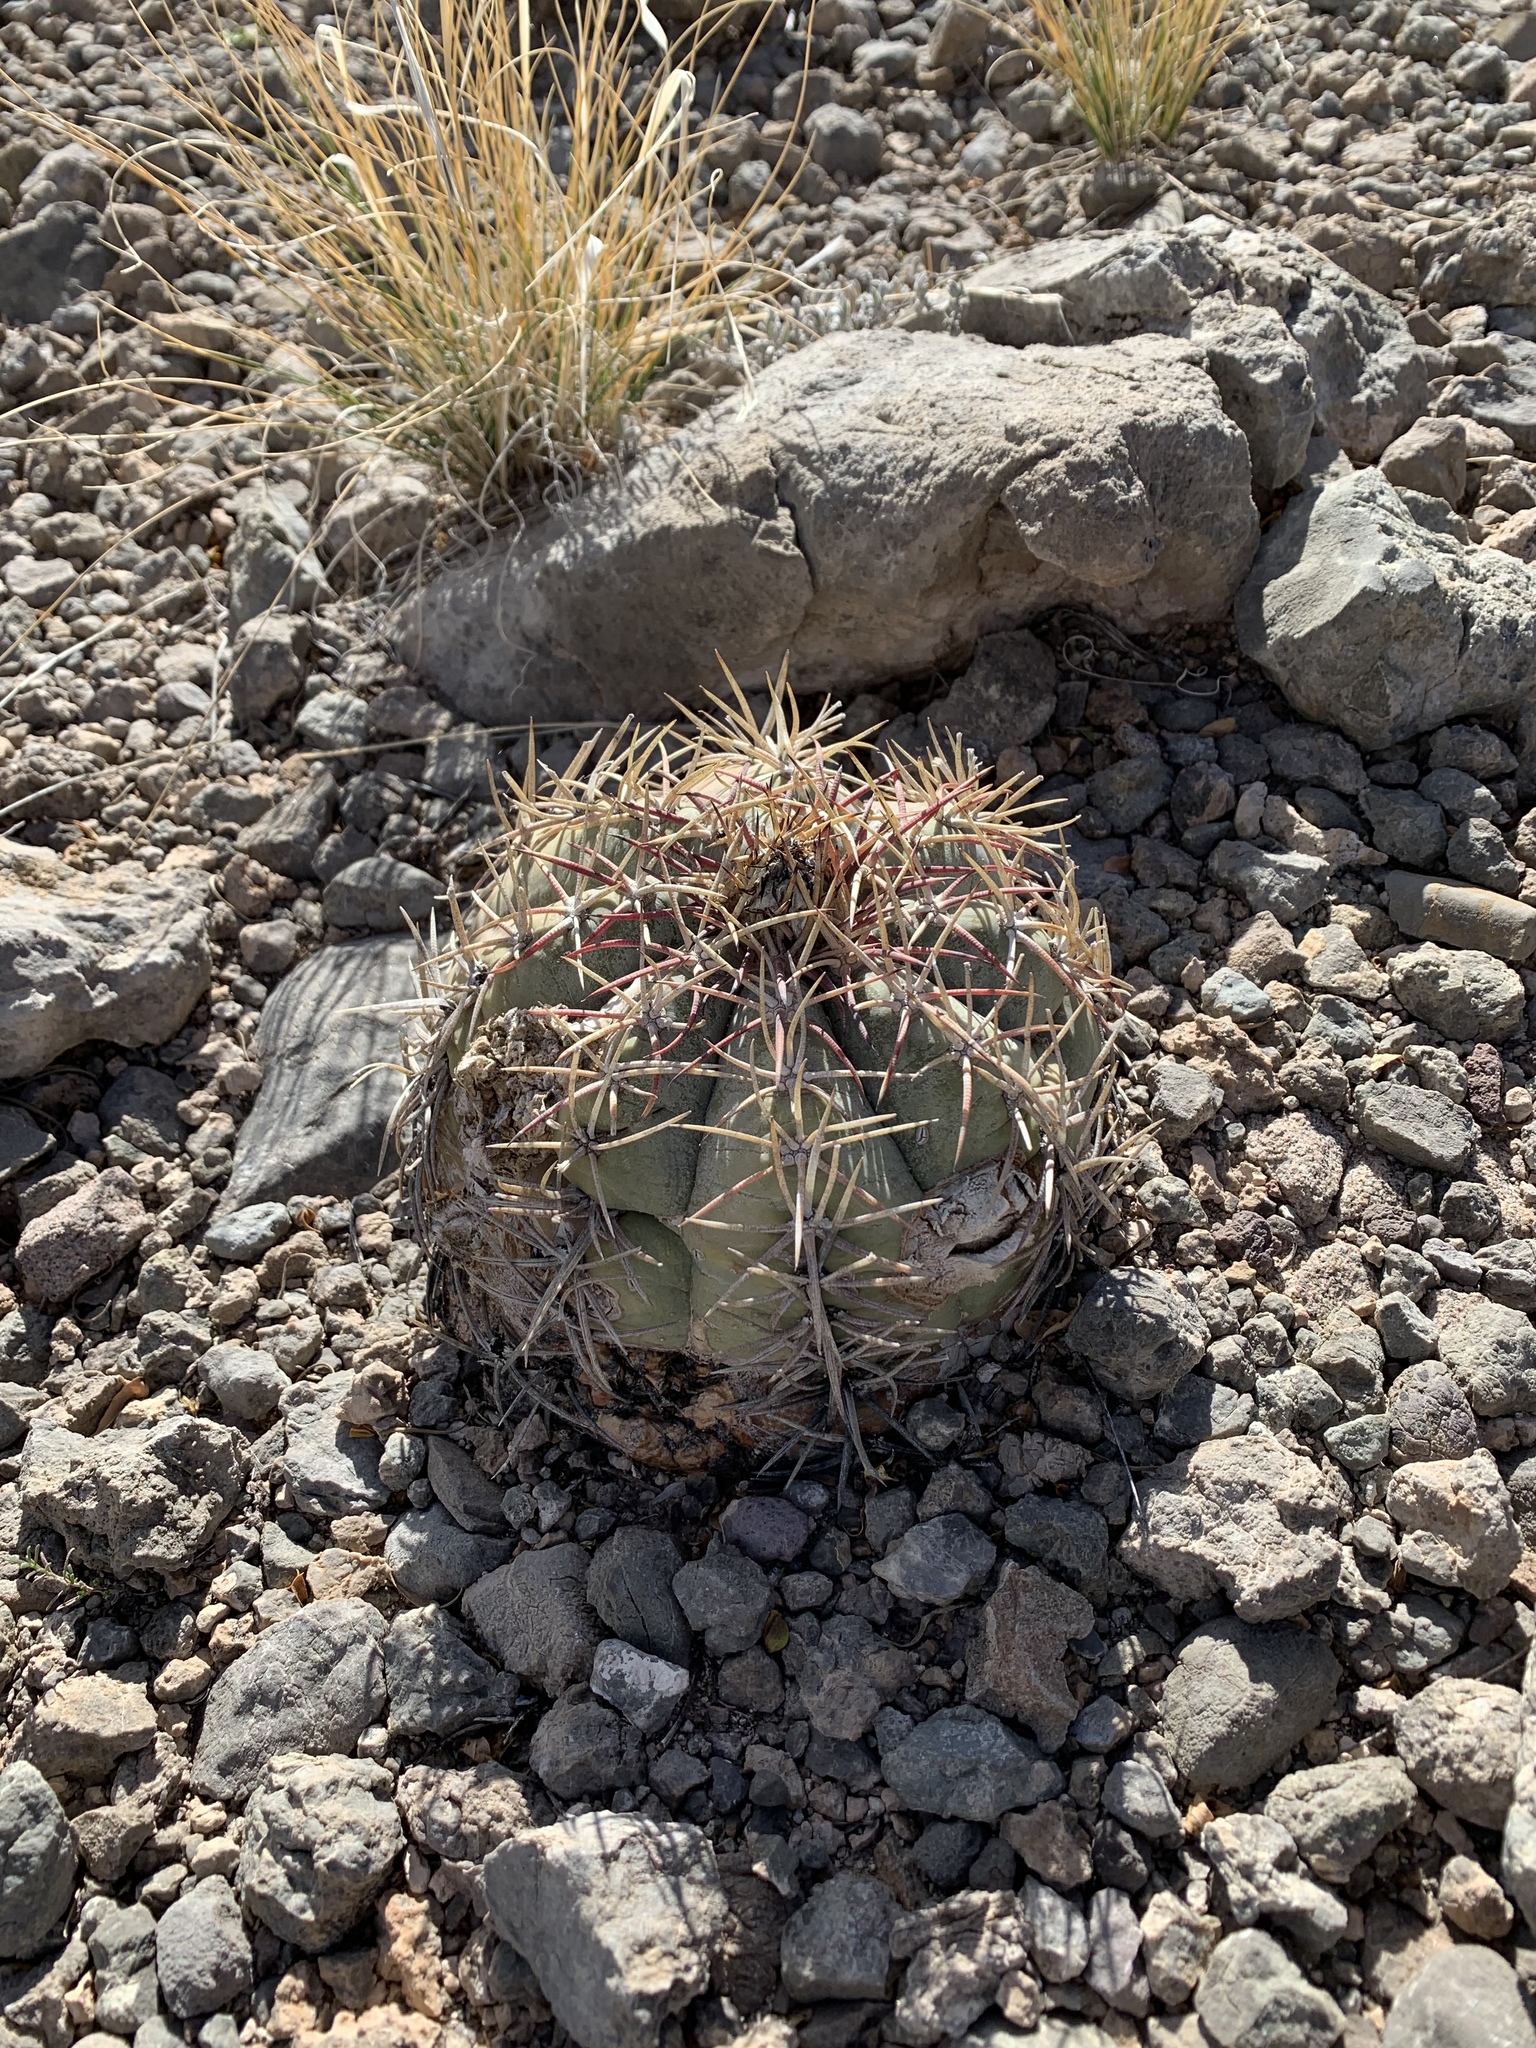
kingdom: Plantae
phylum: Tracheophyta
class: Magnoliopsida
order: Caryophyllales
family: Cactaceae
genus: Echinocactus
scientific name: Echinocactus horizonthalonius
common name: Devilshead
